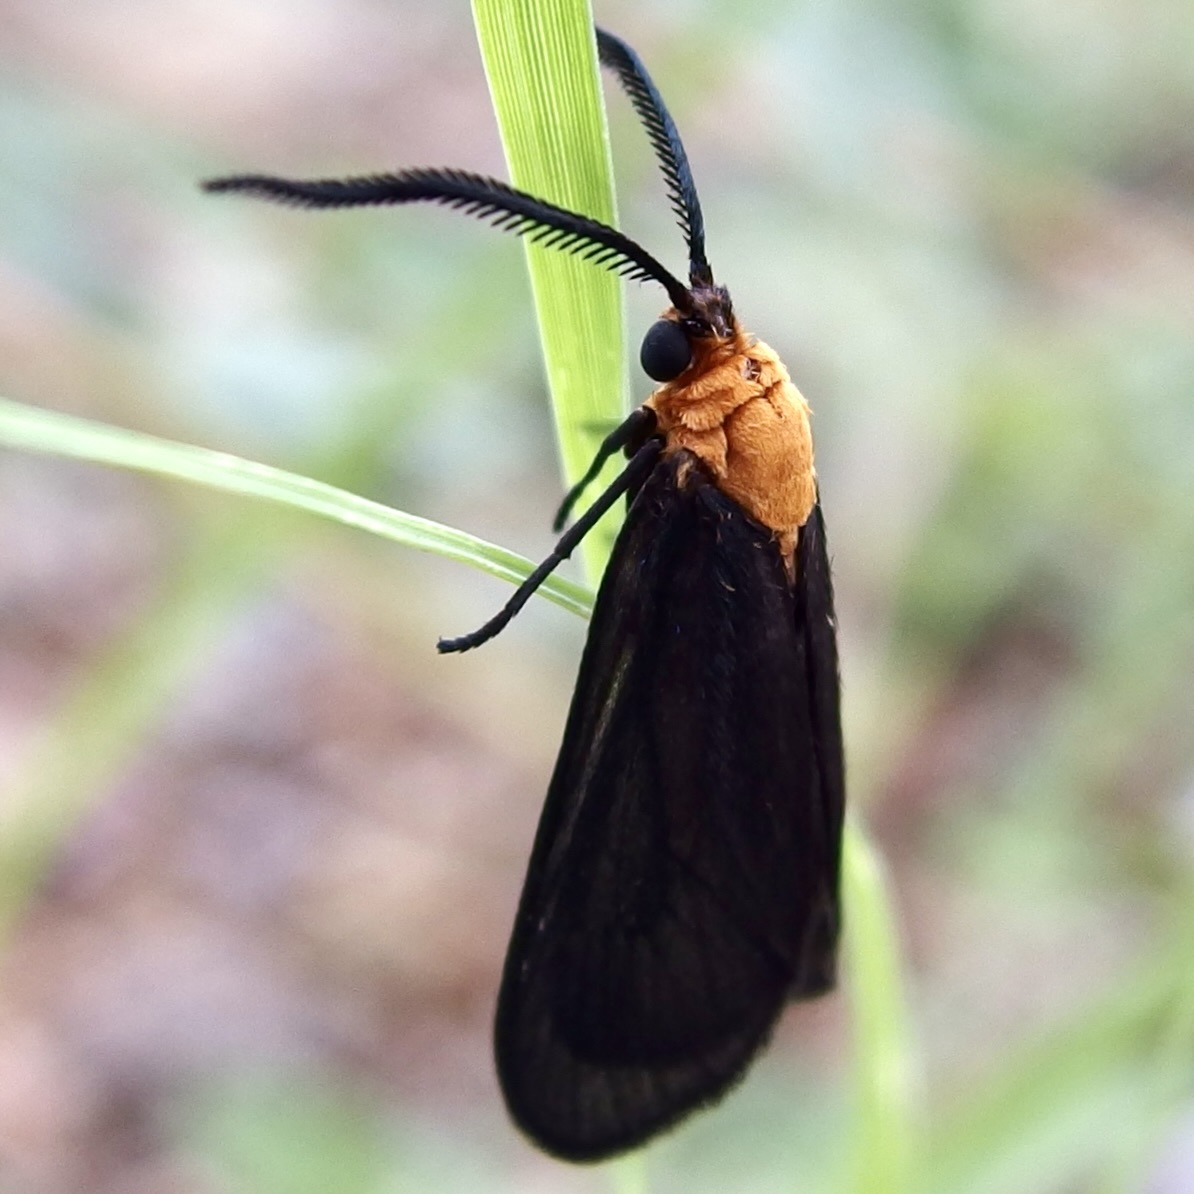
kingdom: Animalia
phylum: Arthropoda
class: Insecta
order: Lepidoptera
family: Zygaenidae
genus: Neoilliberis
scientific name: Neoilliberis fusca
